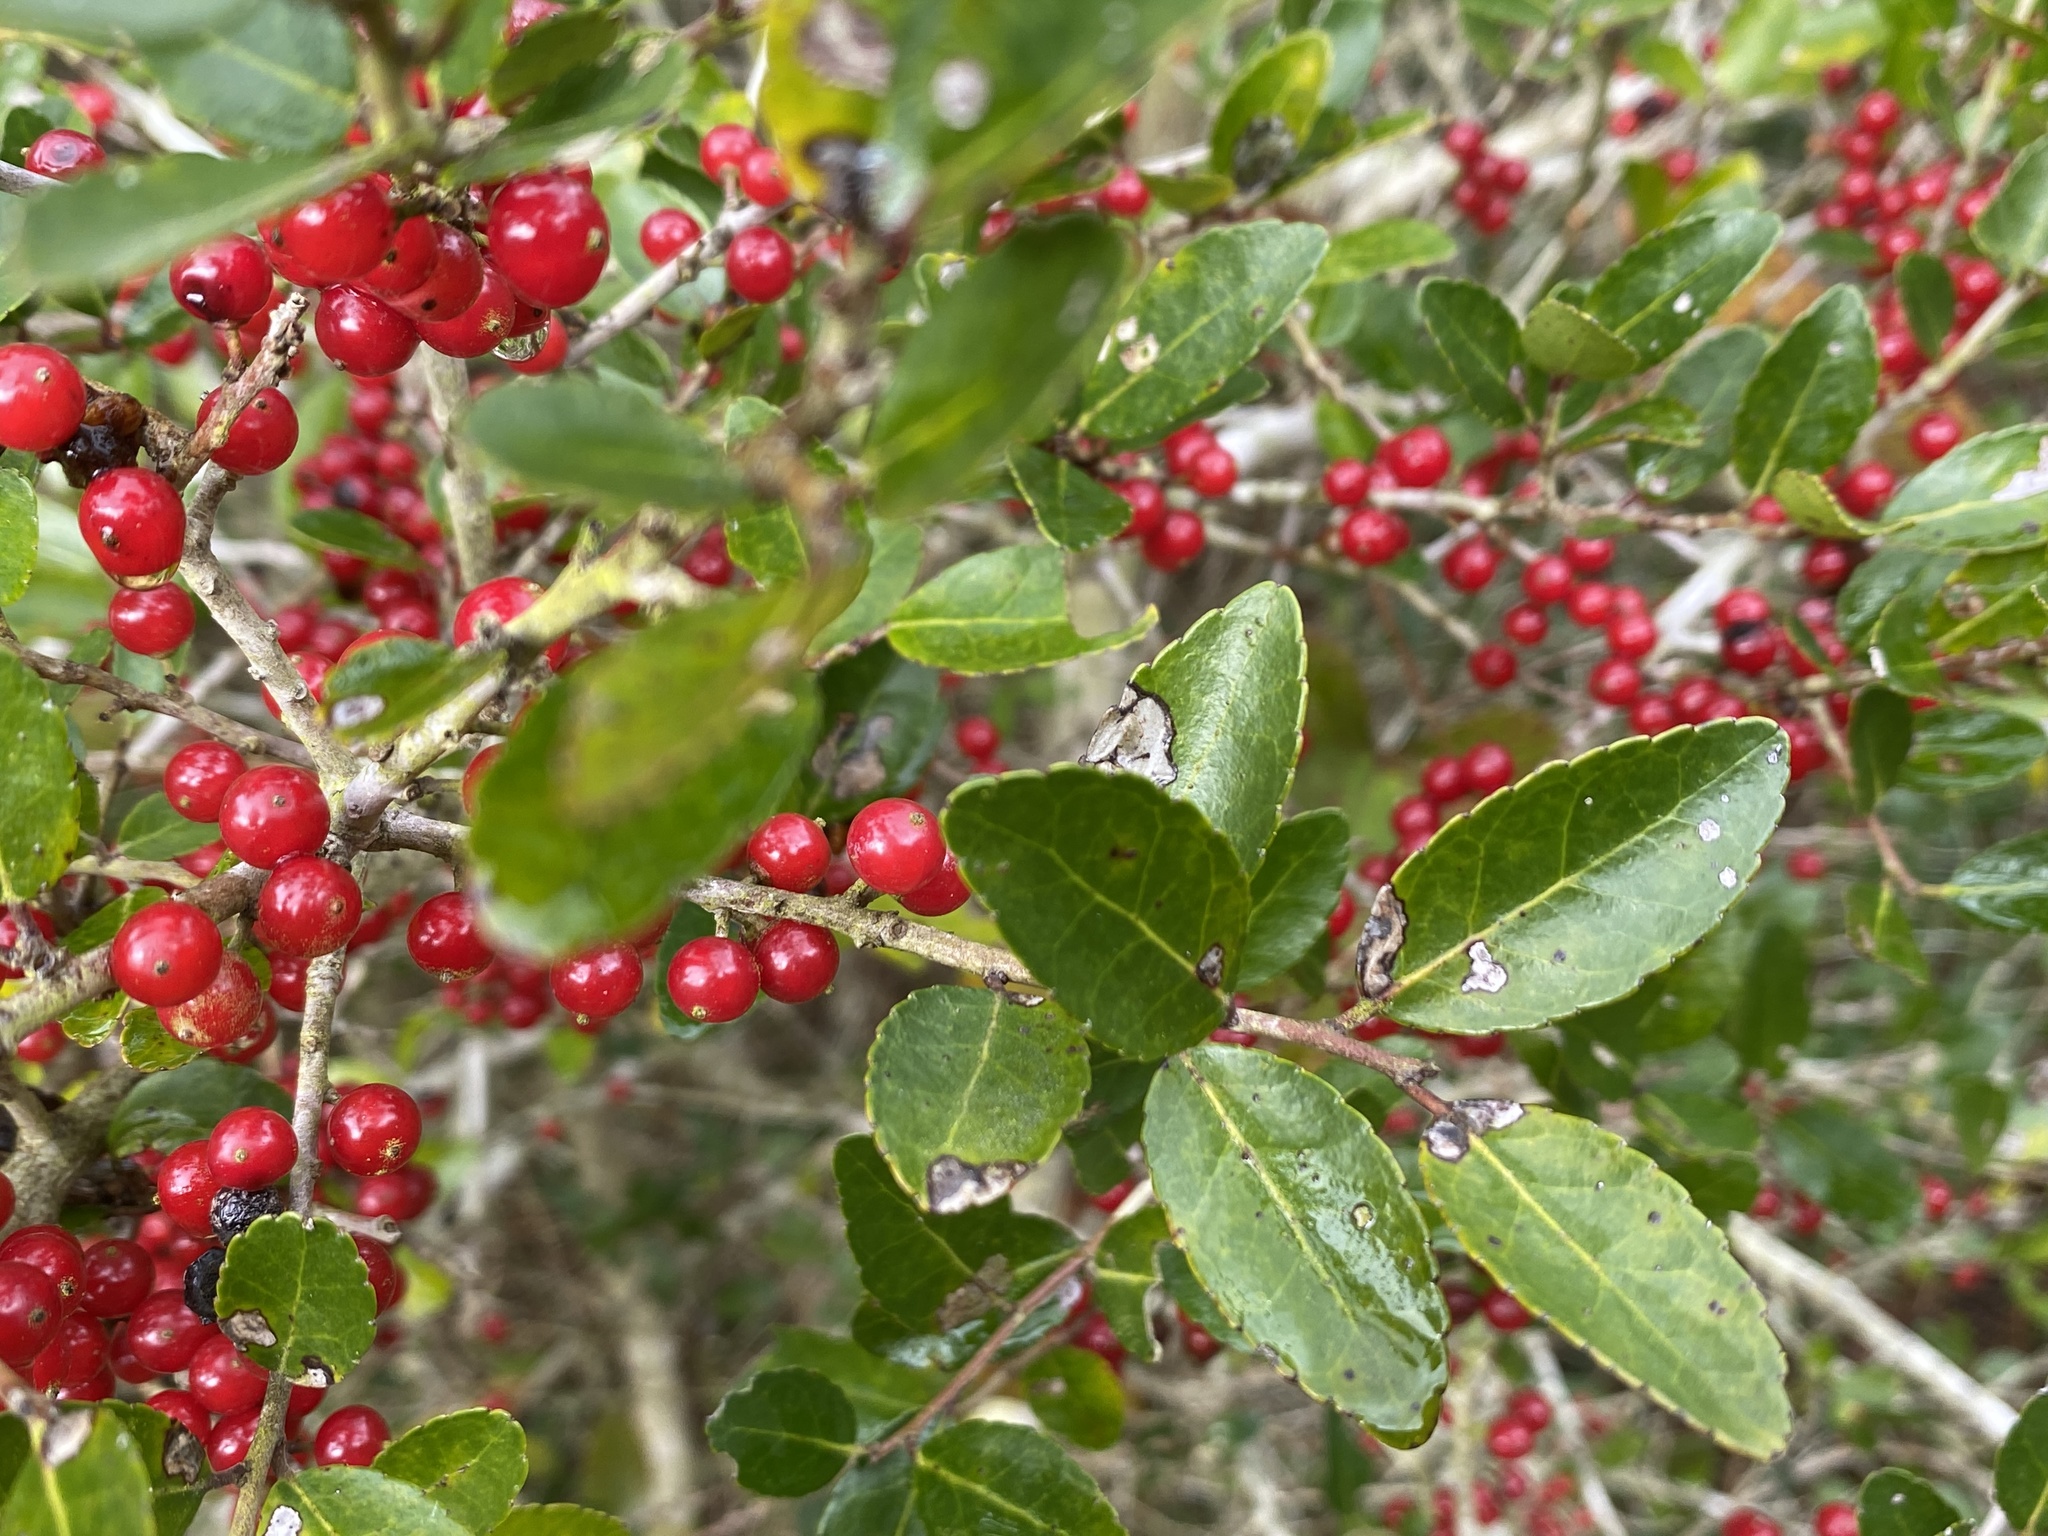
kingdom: Plantae
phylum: Tracheophyta
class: Magnoliopsida
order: Aquifoliales
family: Aquifoliaceae
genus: Ilex
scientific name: Ilex vomitoria
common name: Yaupon holly
